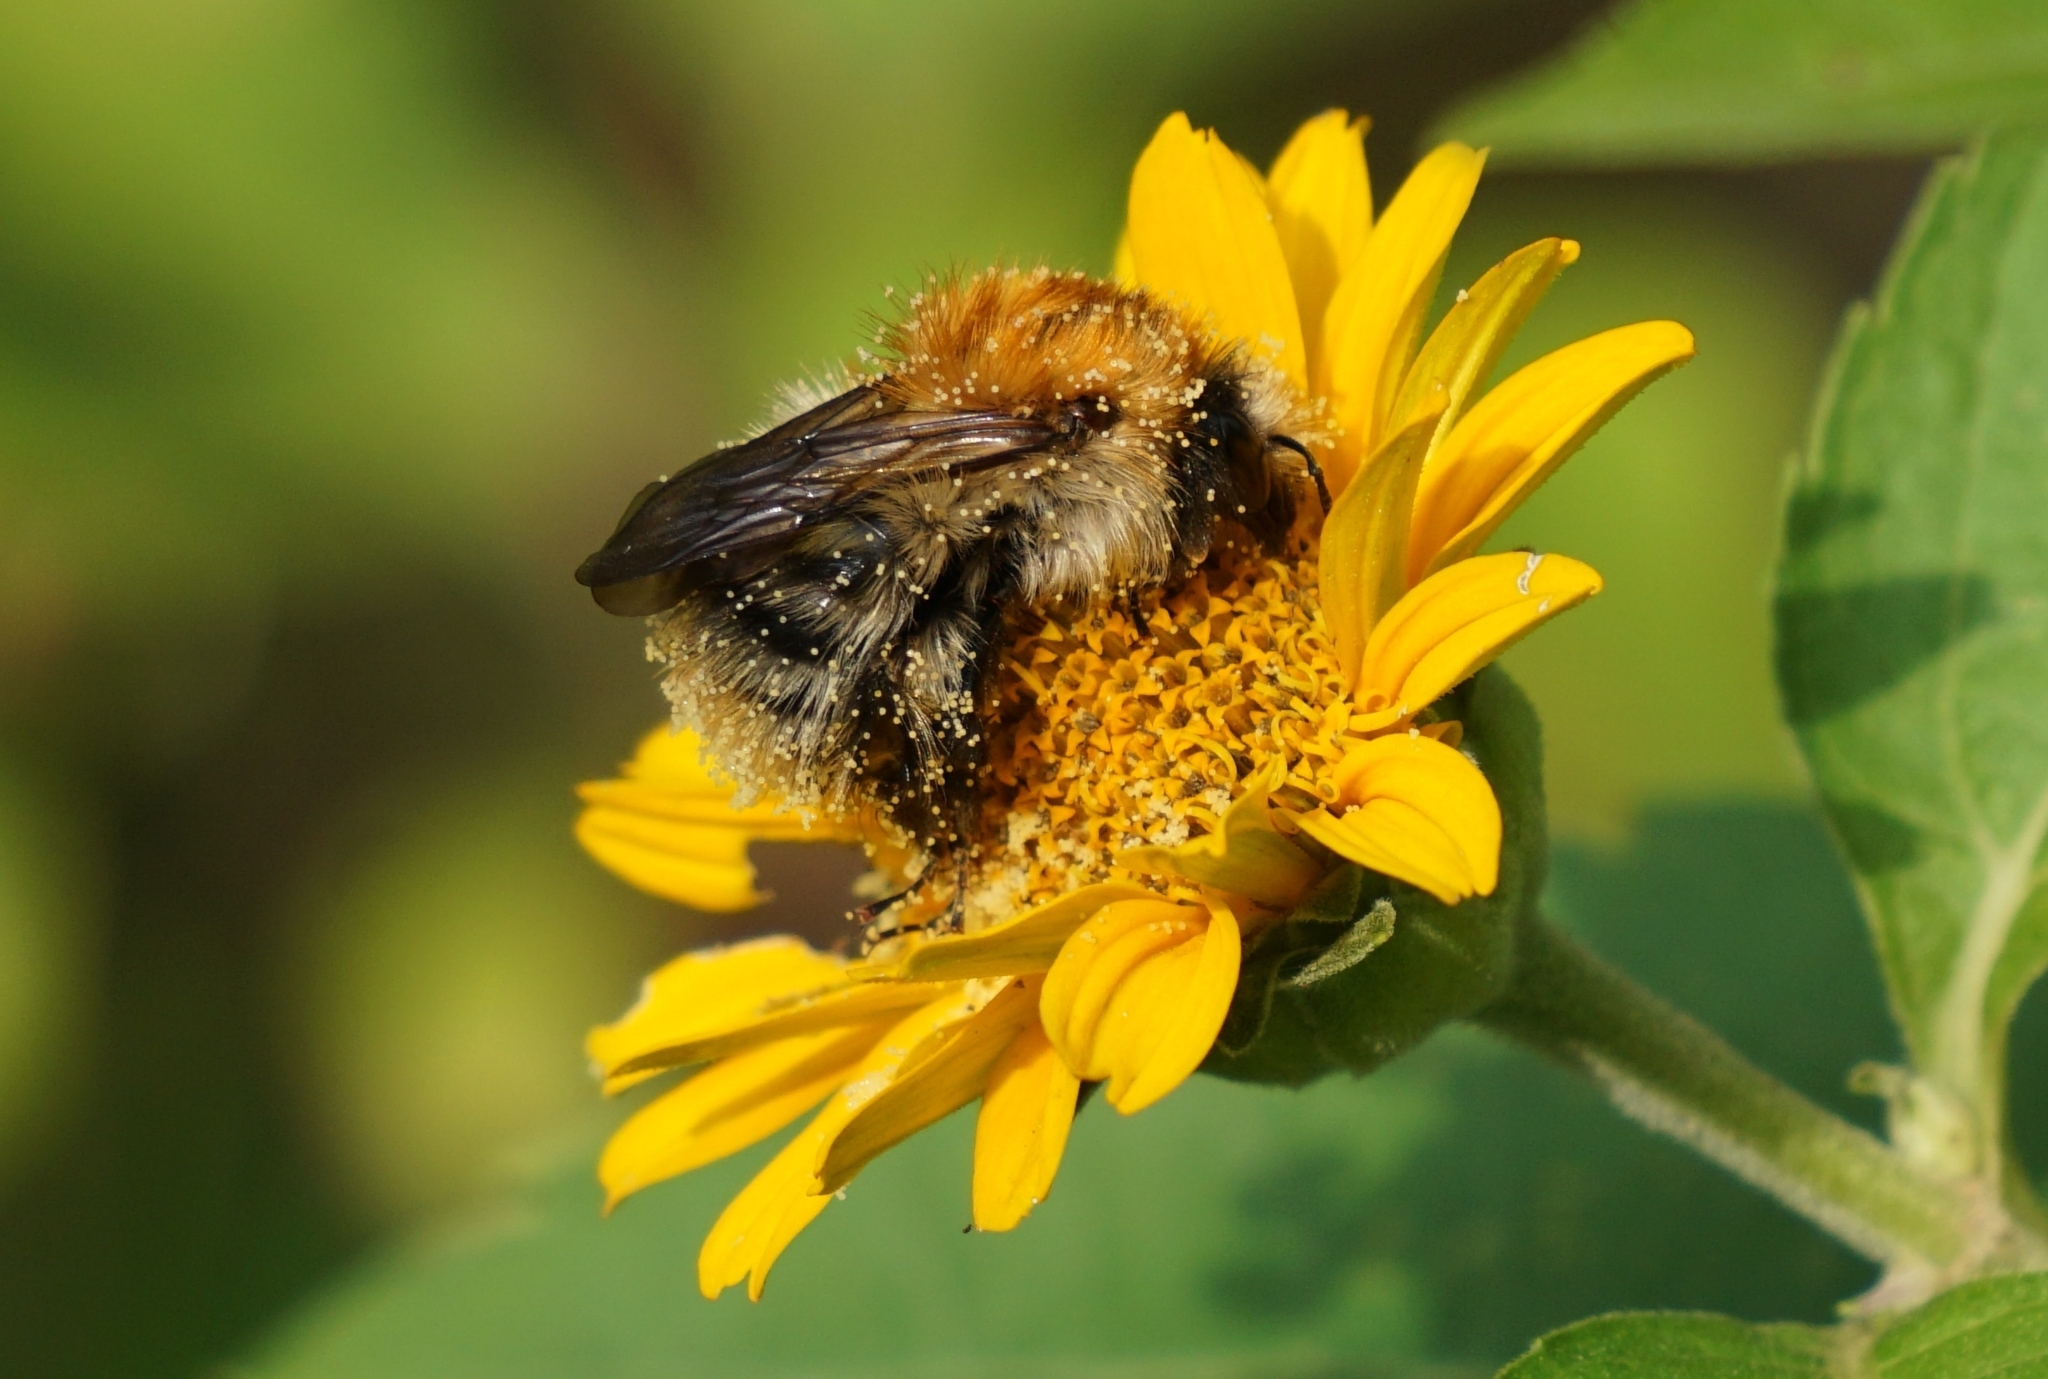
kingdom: Animalia
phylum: Arthropoda
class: Insecta
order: Hymenoptera
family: Apidae
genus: Bombus
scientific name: Bombus pascuorum
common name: Common carder bee
